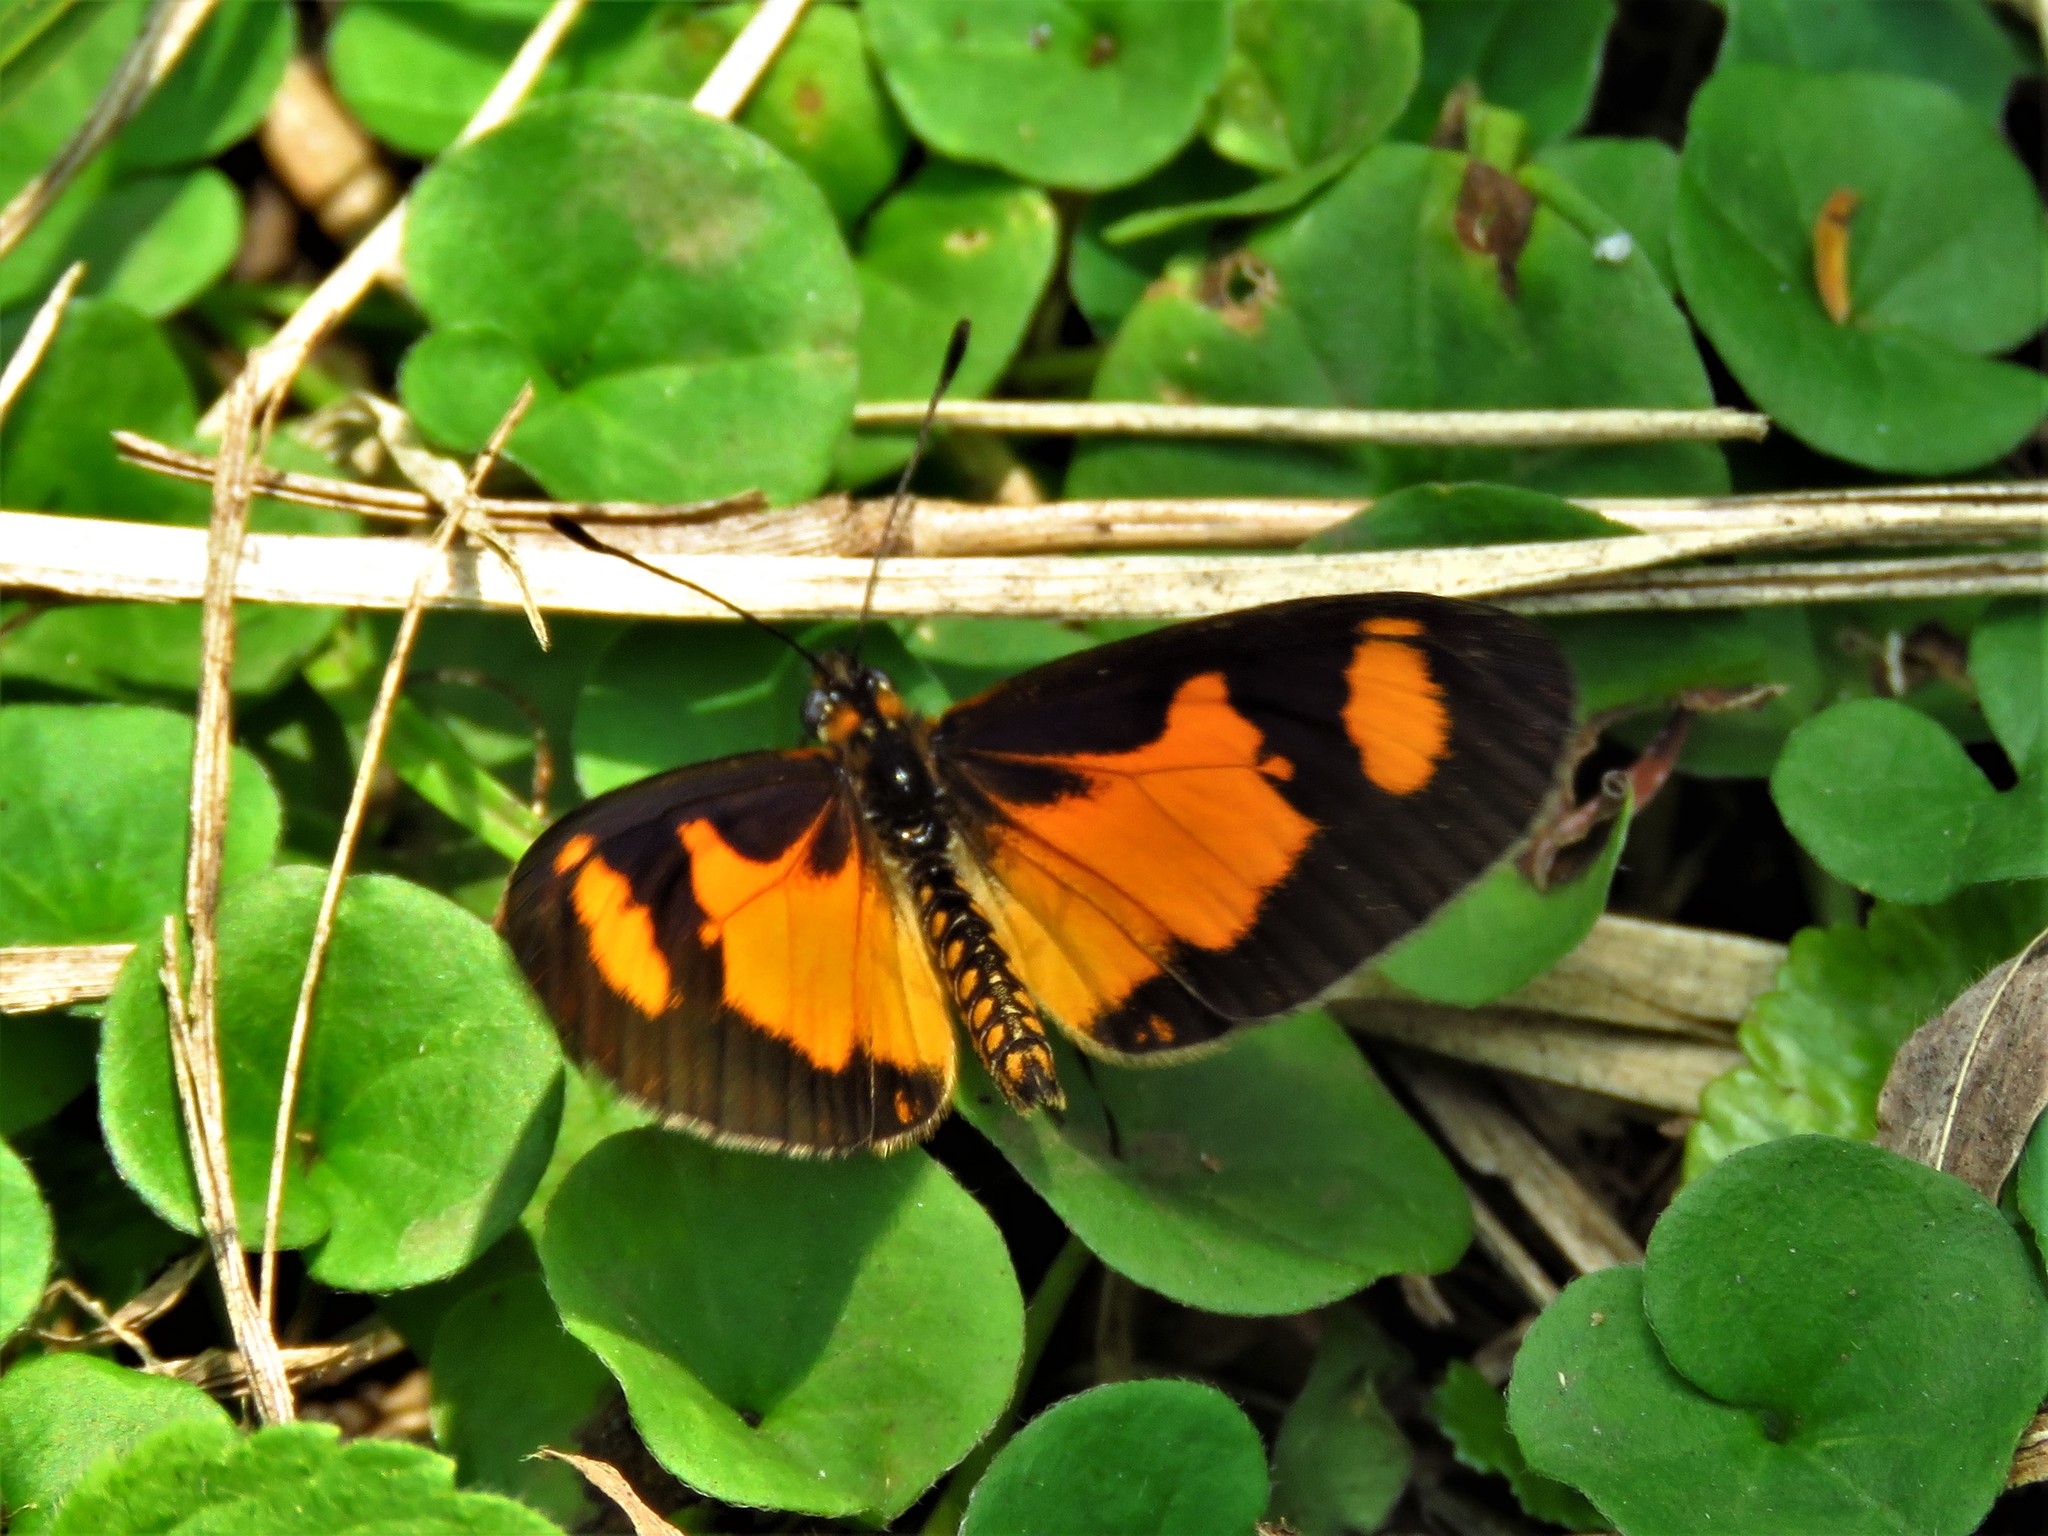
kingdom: Animalia
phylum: Arthropoda
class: Insecta
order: Lepidoptera
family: Nymphalidae
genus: Acraea
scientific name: Acraea Telchinia acerata
